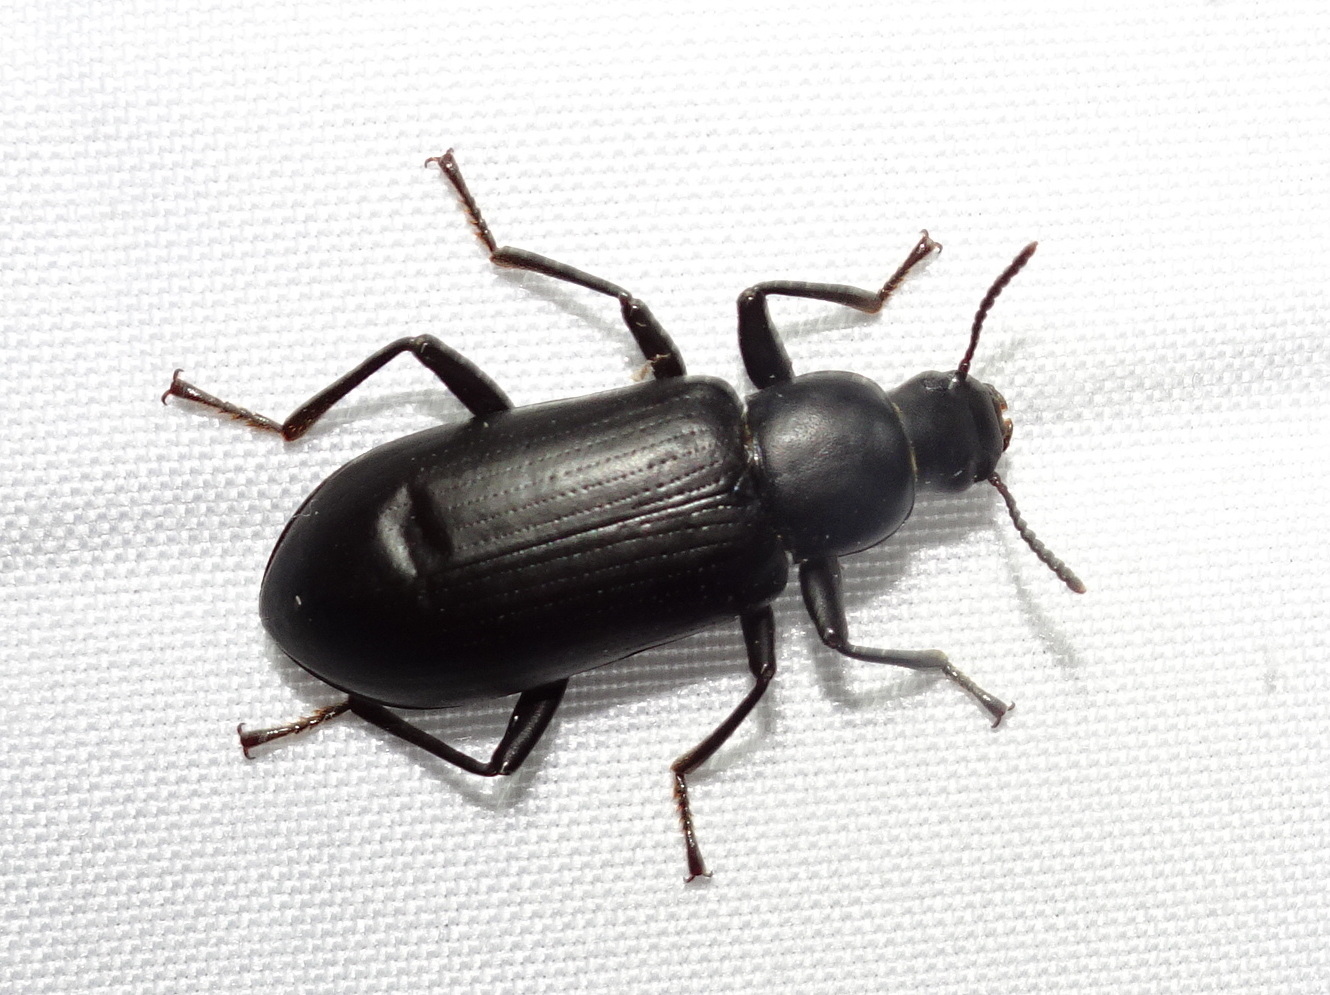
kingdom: Animalia
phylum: Arthropoda
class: Insecta
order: Coleoptera
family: Tenebrionidae
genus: Alobates
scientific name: Alobates pensylvanicus
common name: False mealworm beetle
